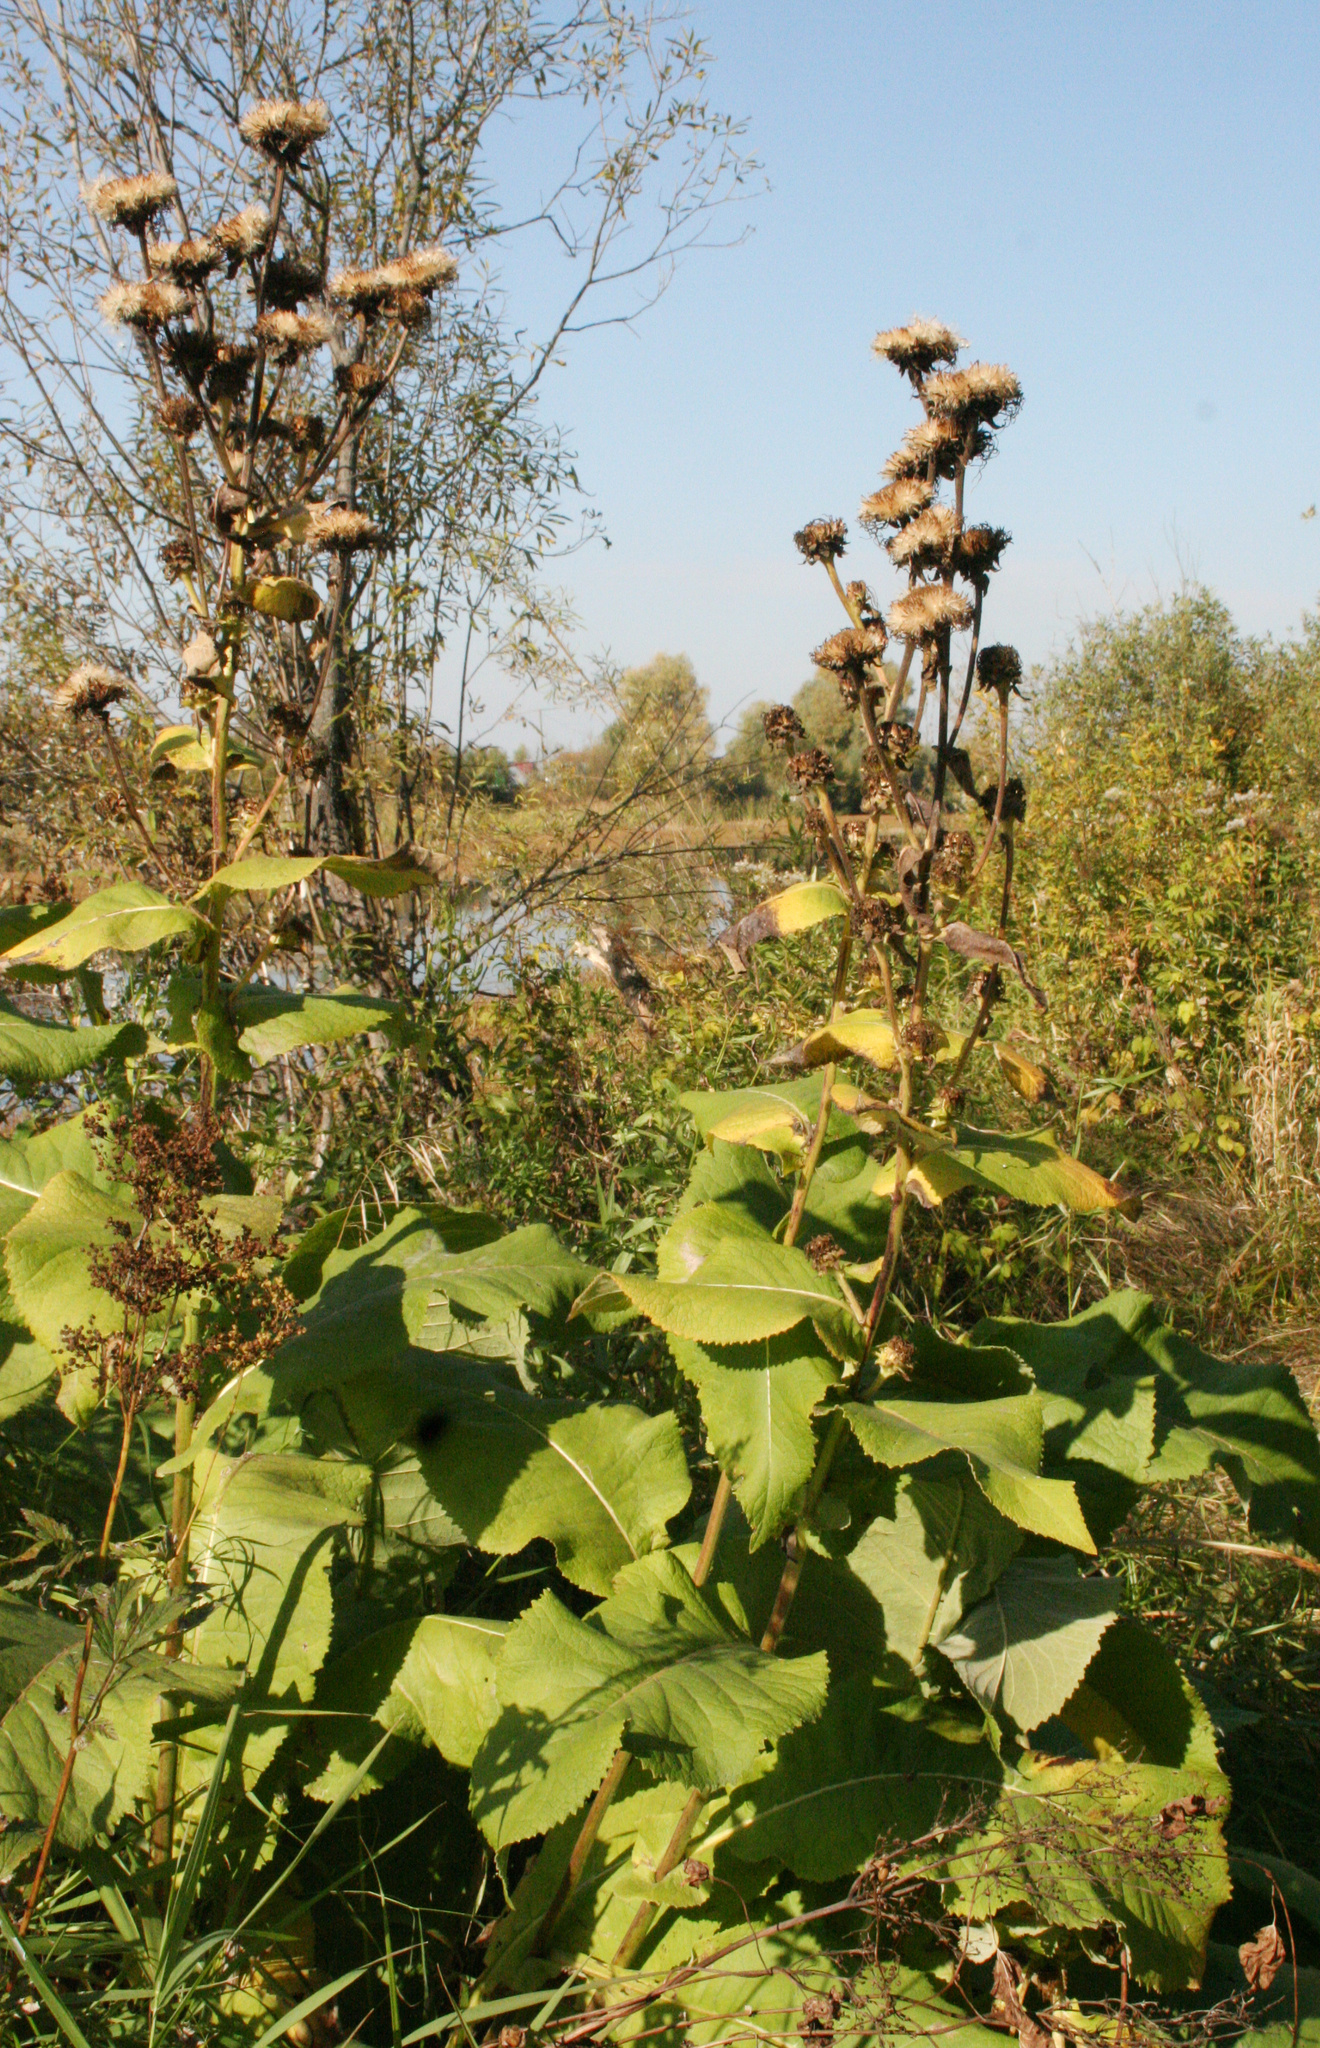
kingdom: Plantae
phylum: Tracheophyta
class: Magnoliopsida
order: Asterales
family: Asteraceae
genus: Inula
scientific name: Inula helenium
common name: Elecampane
